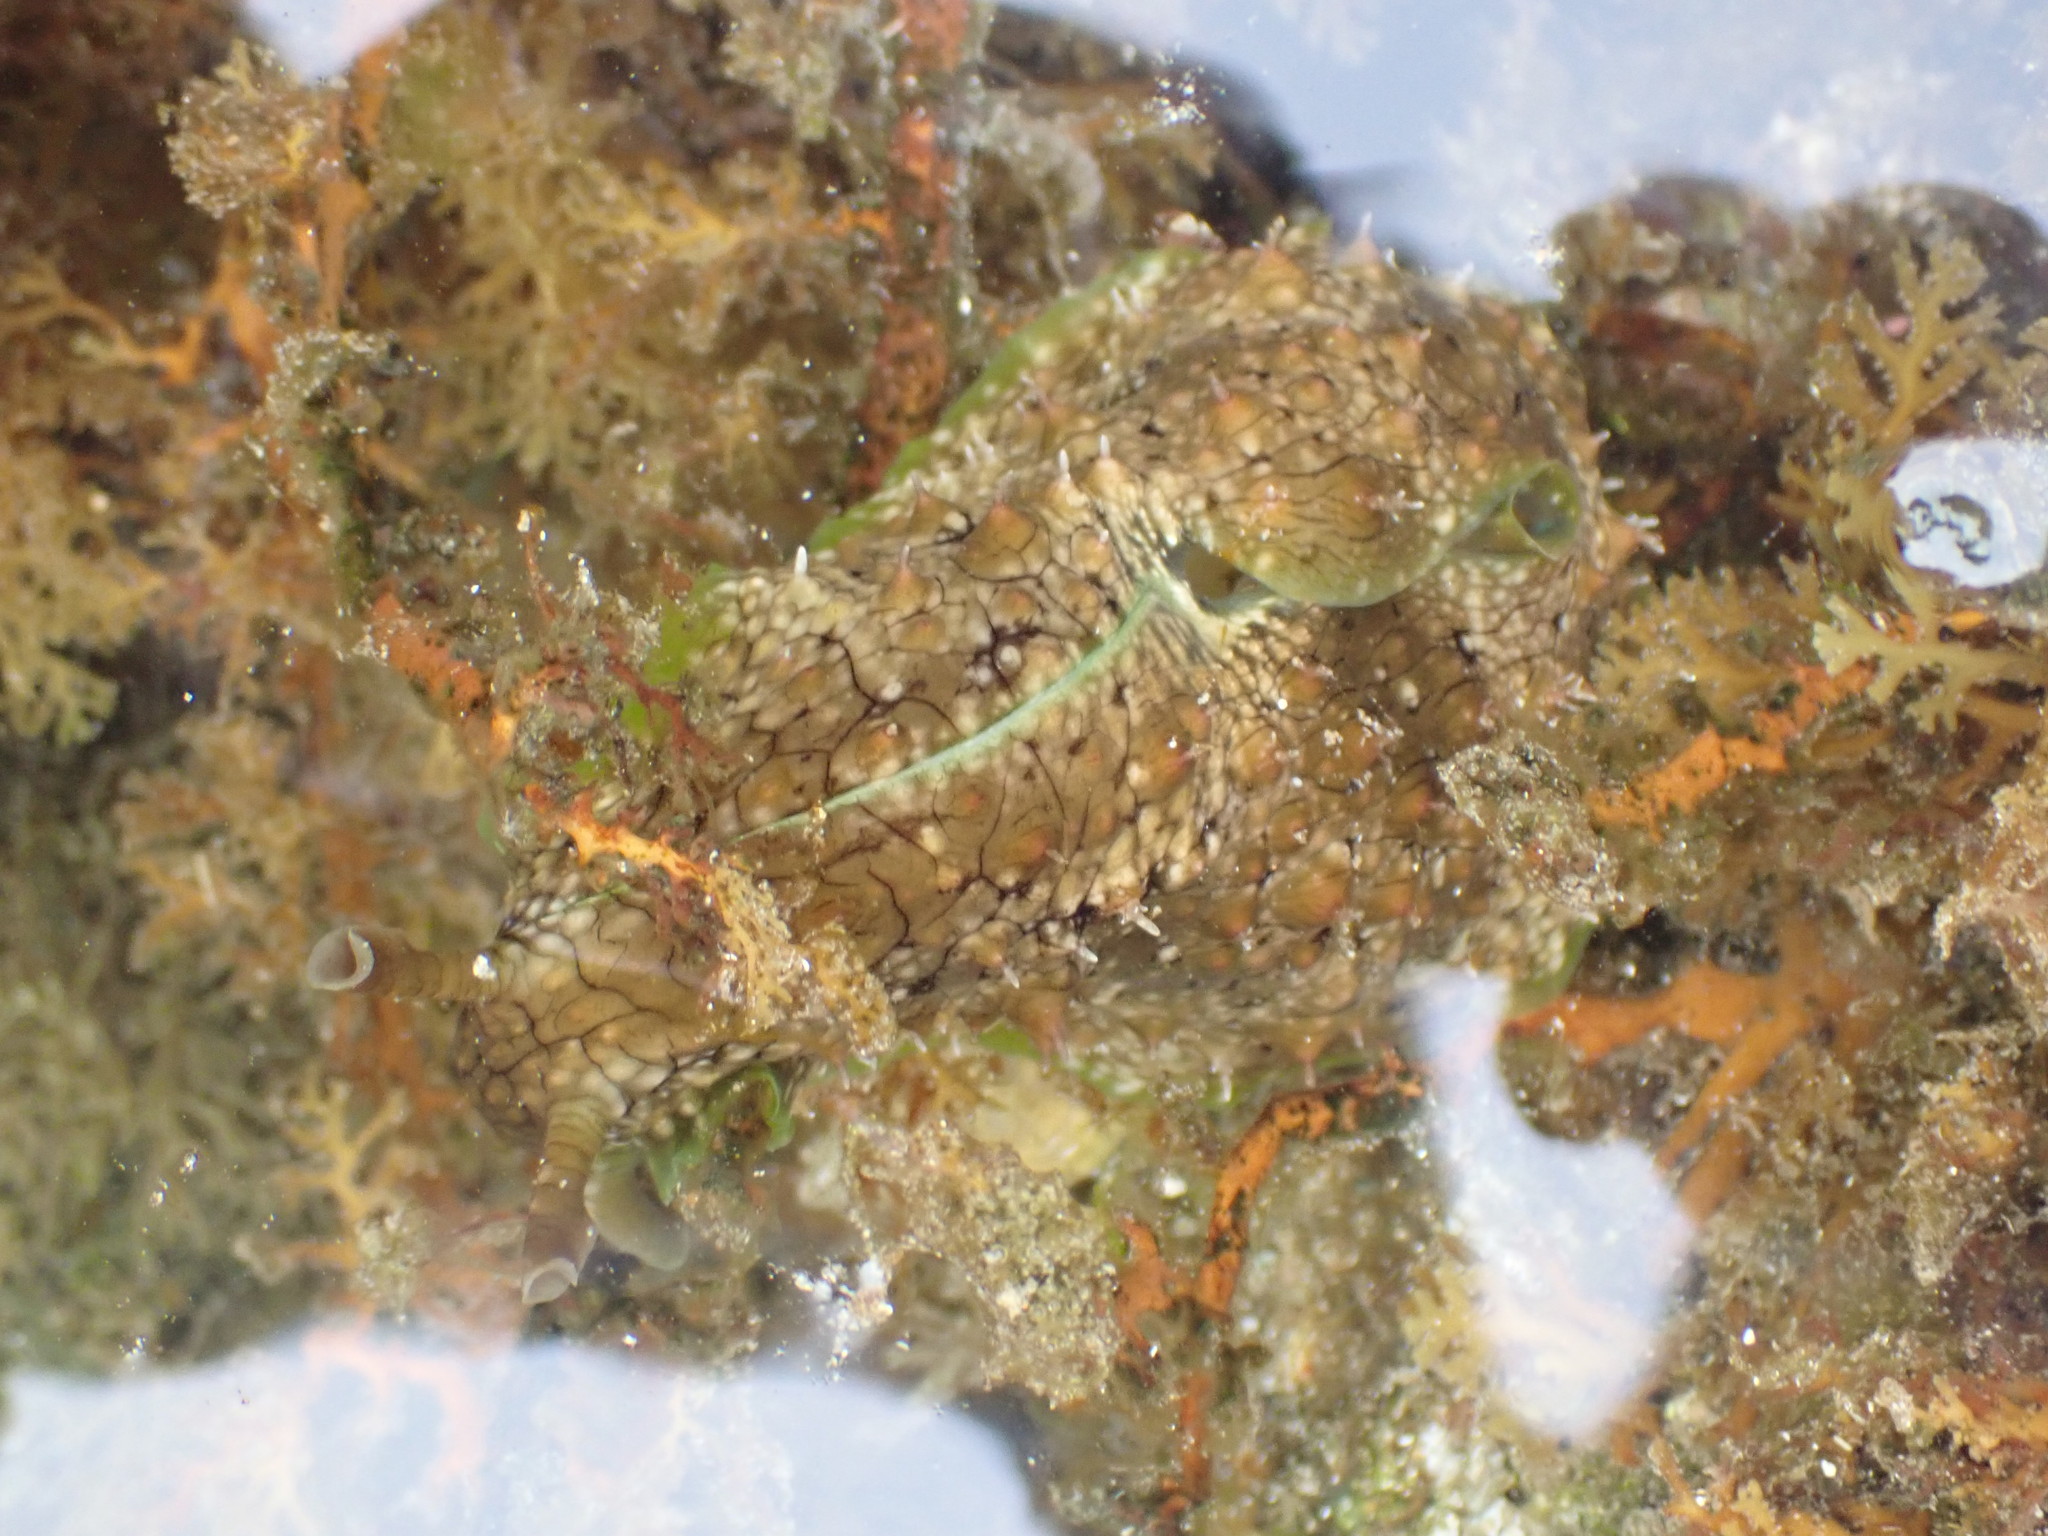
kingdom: Animalia
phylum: Mollusca
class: Gastropoda
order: Aplysiida
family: Aplysiidae
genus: Dolabrifera
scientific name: Dolabrifera brazieri
